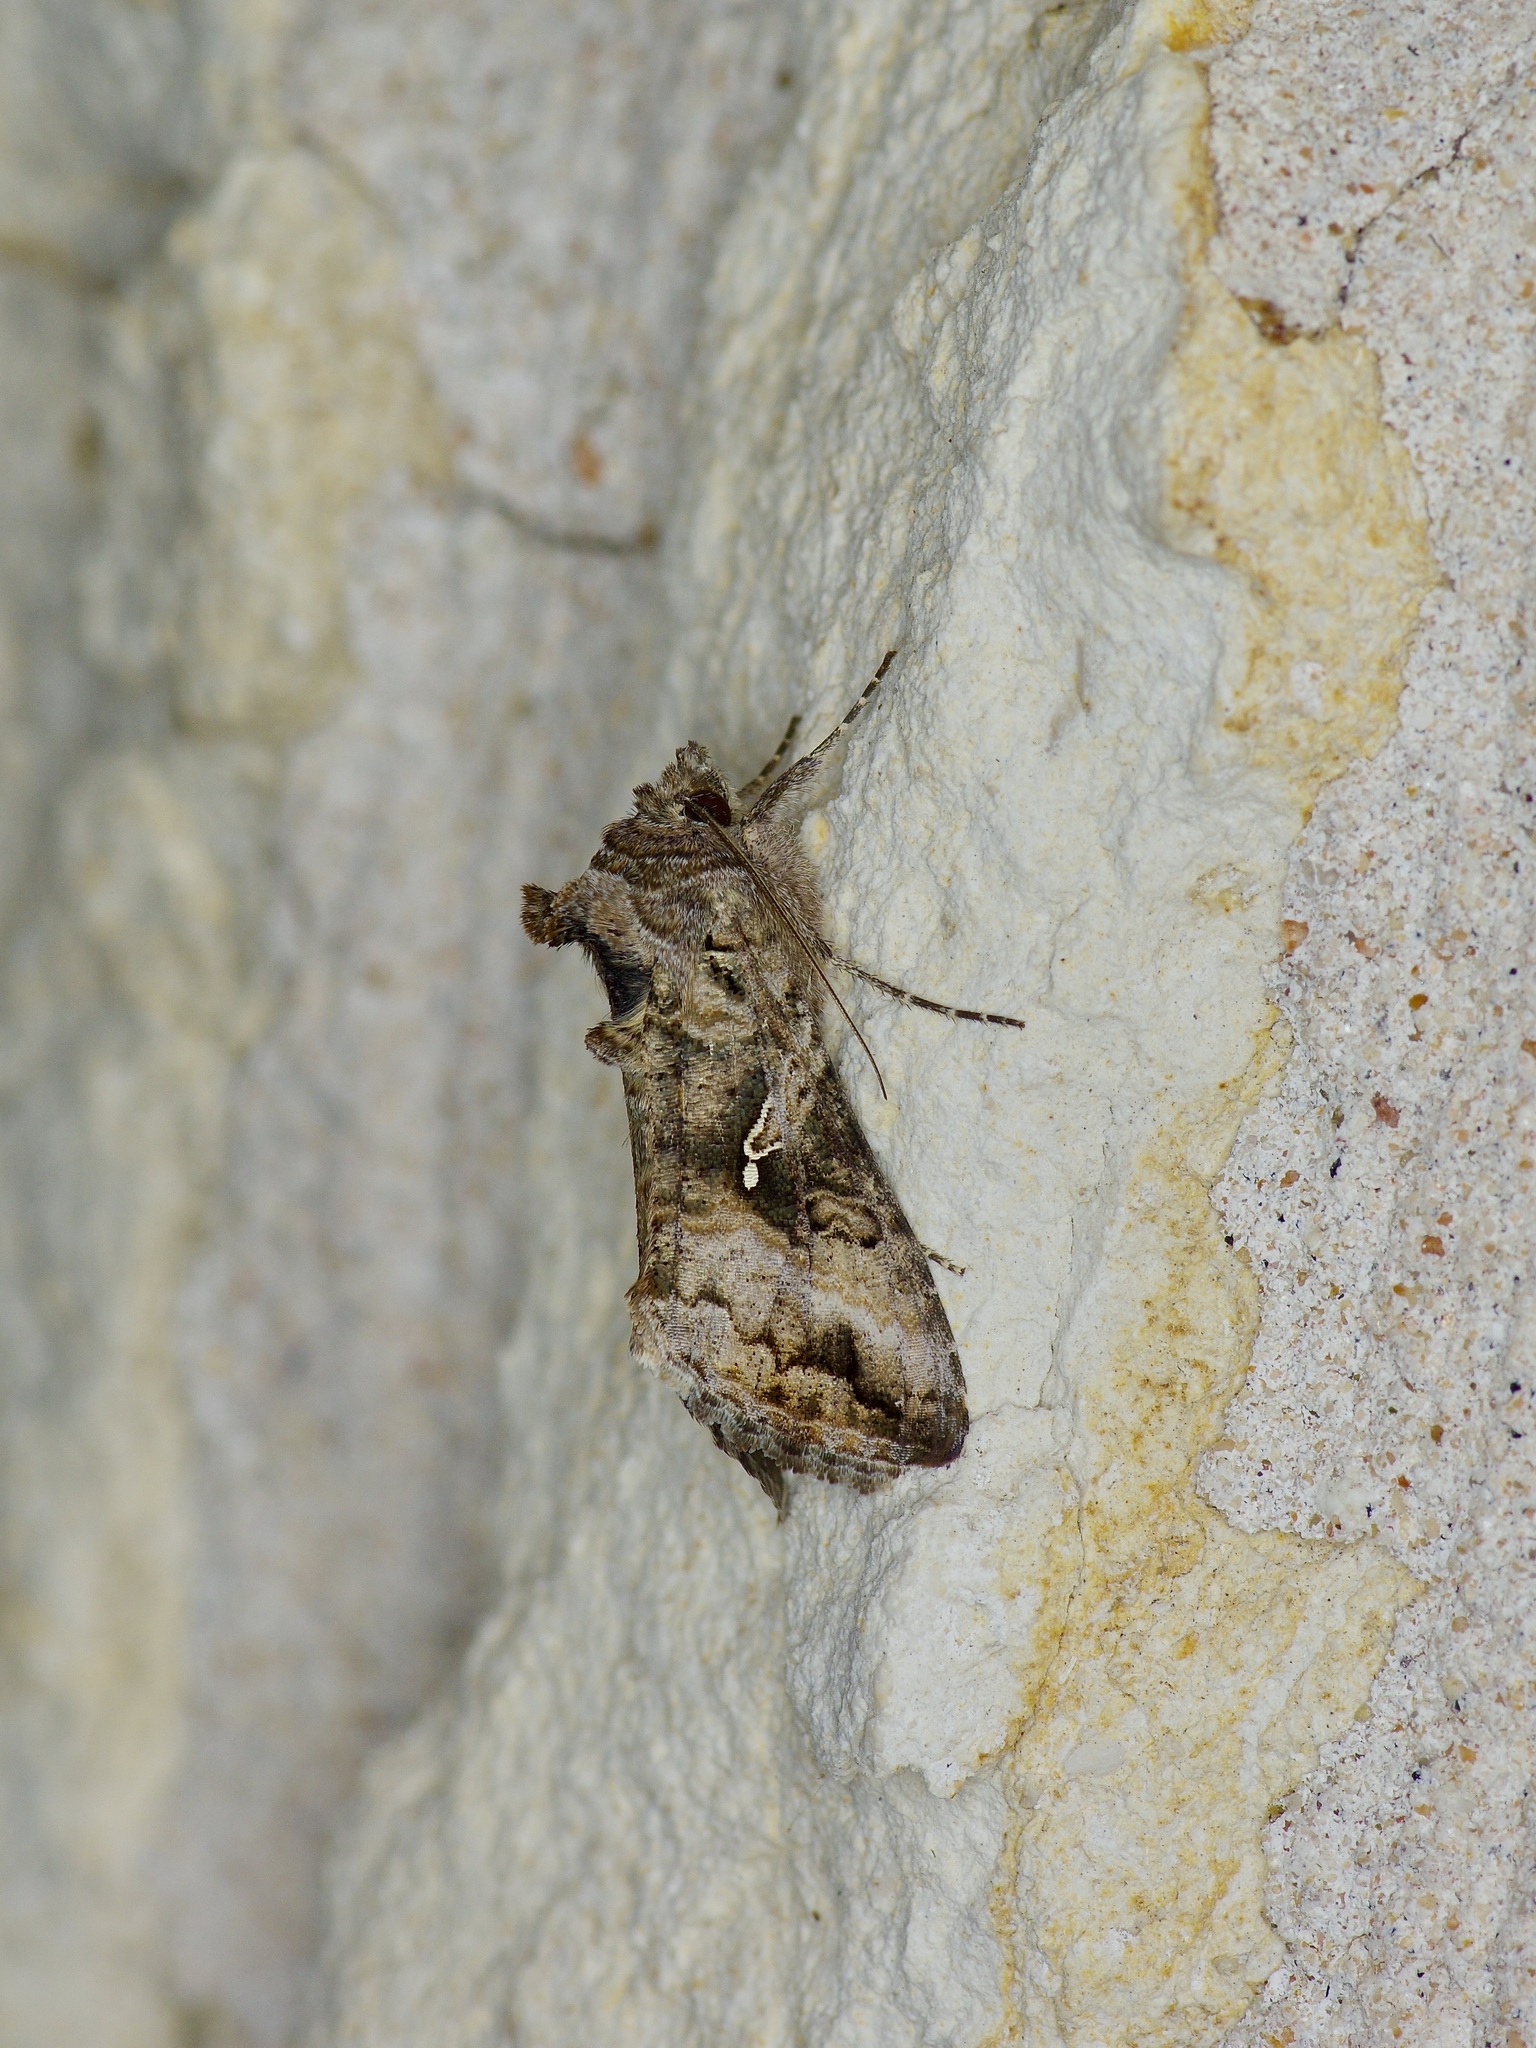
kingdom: Animalia
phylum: Arthropoda
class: Insecta
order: Lepidoptera
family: Noctuidae
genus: Rachiplusia
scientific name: Rachiplusia ou
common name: Gray looper moth
